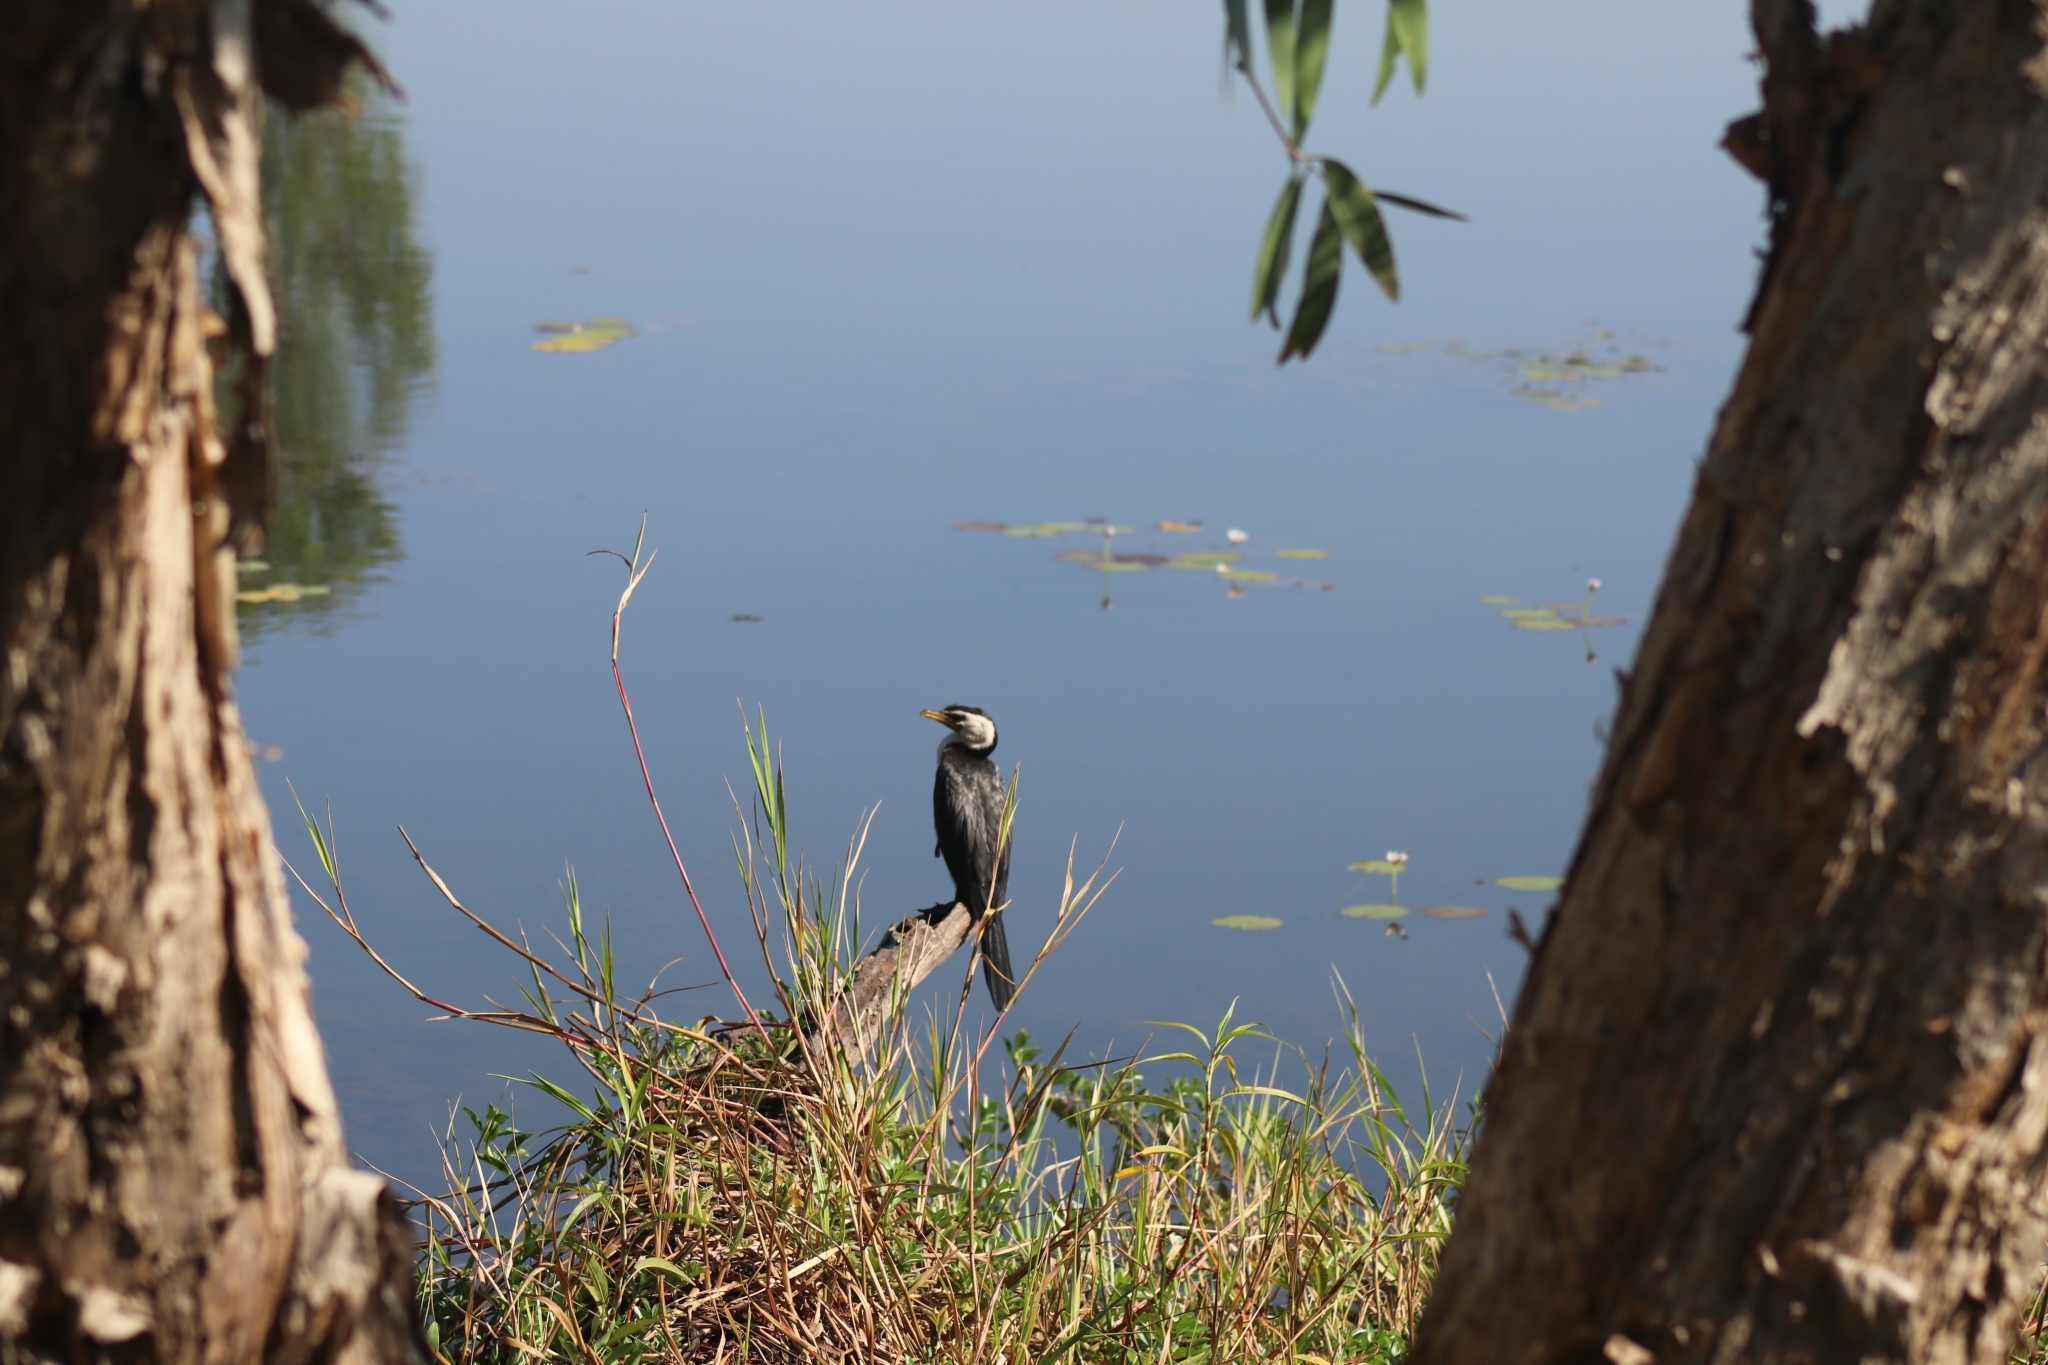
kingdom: Animalia
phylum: Chordata
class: Aves
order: Suliformes
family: Phalacrocoracidae
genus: Microcarbo
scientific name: Microcarbo melanoleucos
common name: Little pied cormorant
